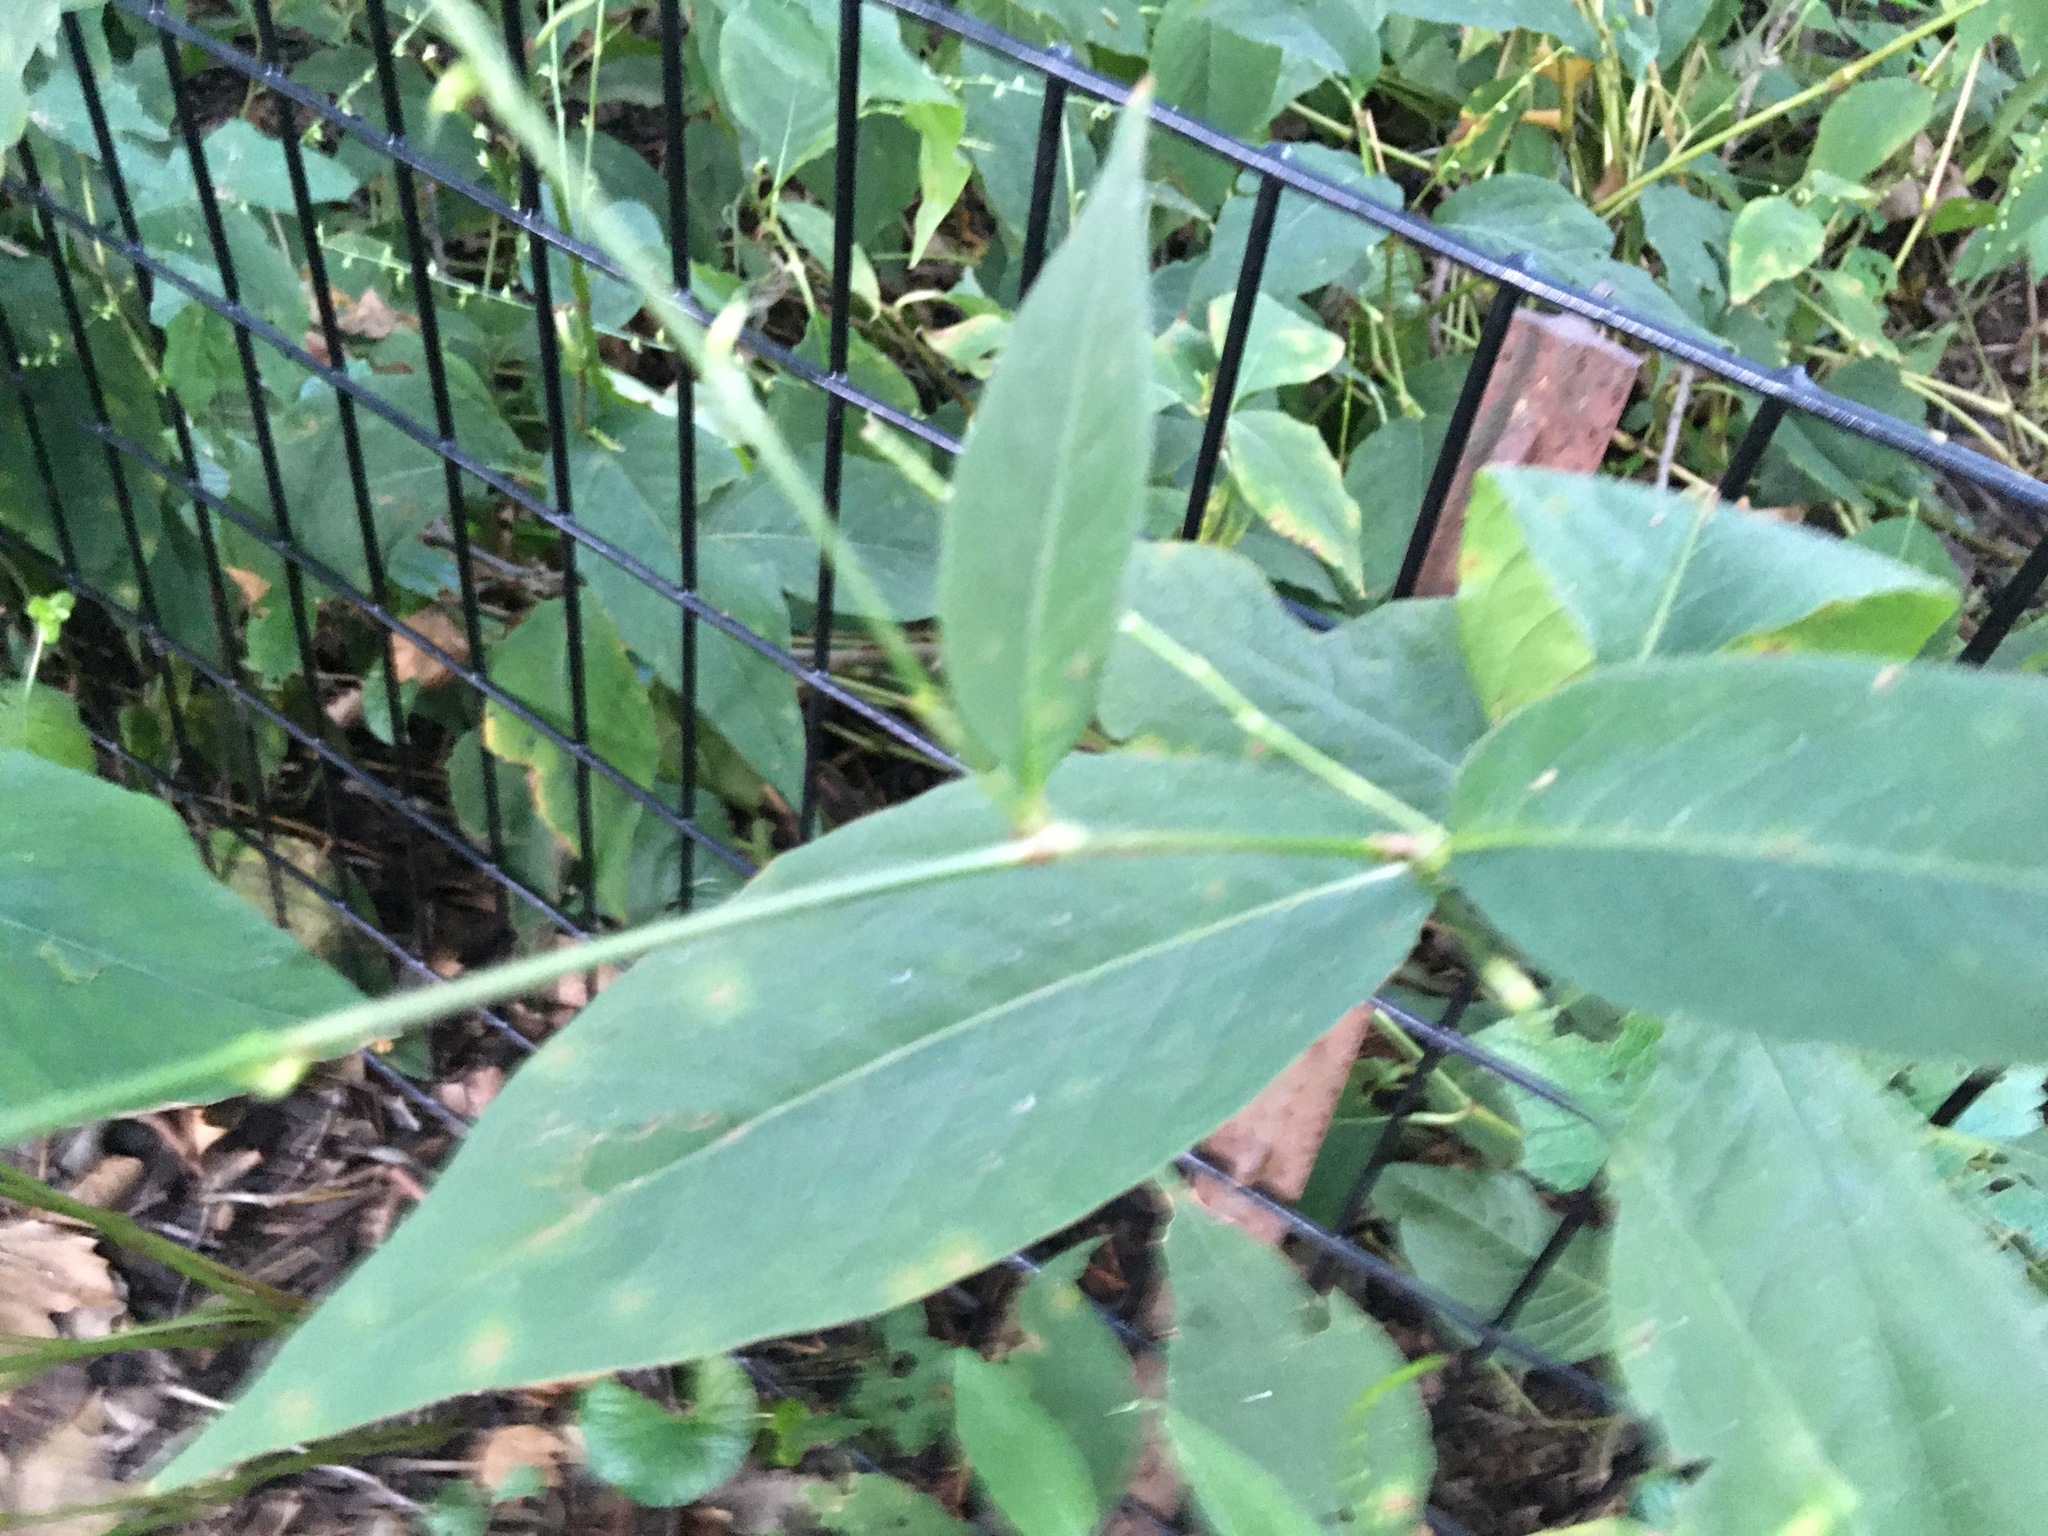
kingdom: Plantae
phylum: Tracheophyta
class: Magnoliopsida
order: Caryophyllales
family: Polygonaceae
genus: Persicaria
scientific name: Persicaria virginiana
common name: Jumpseed
